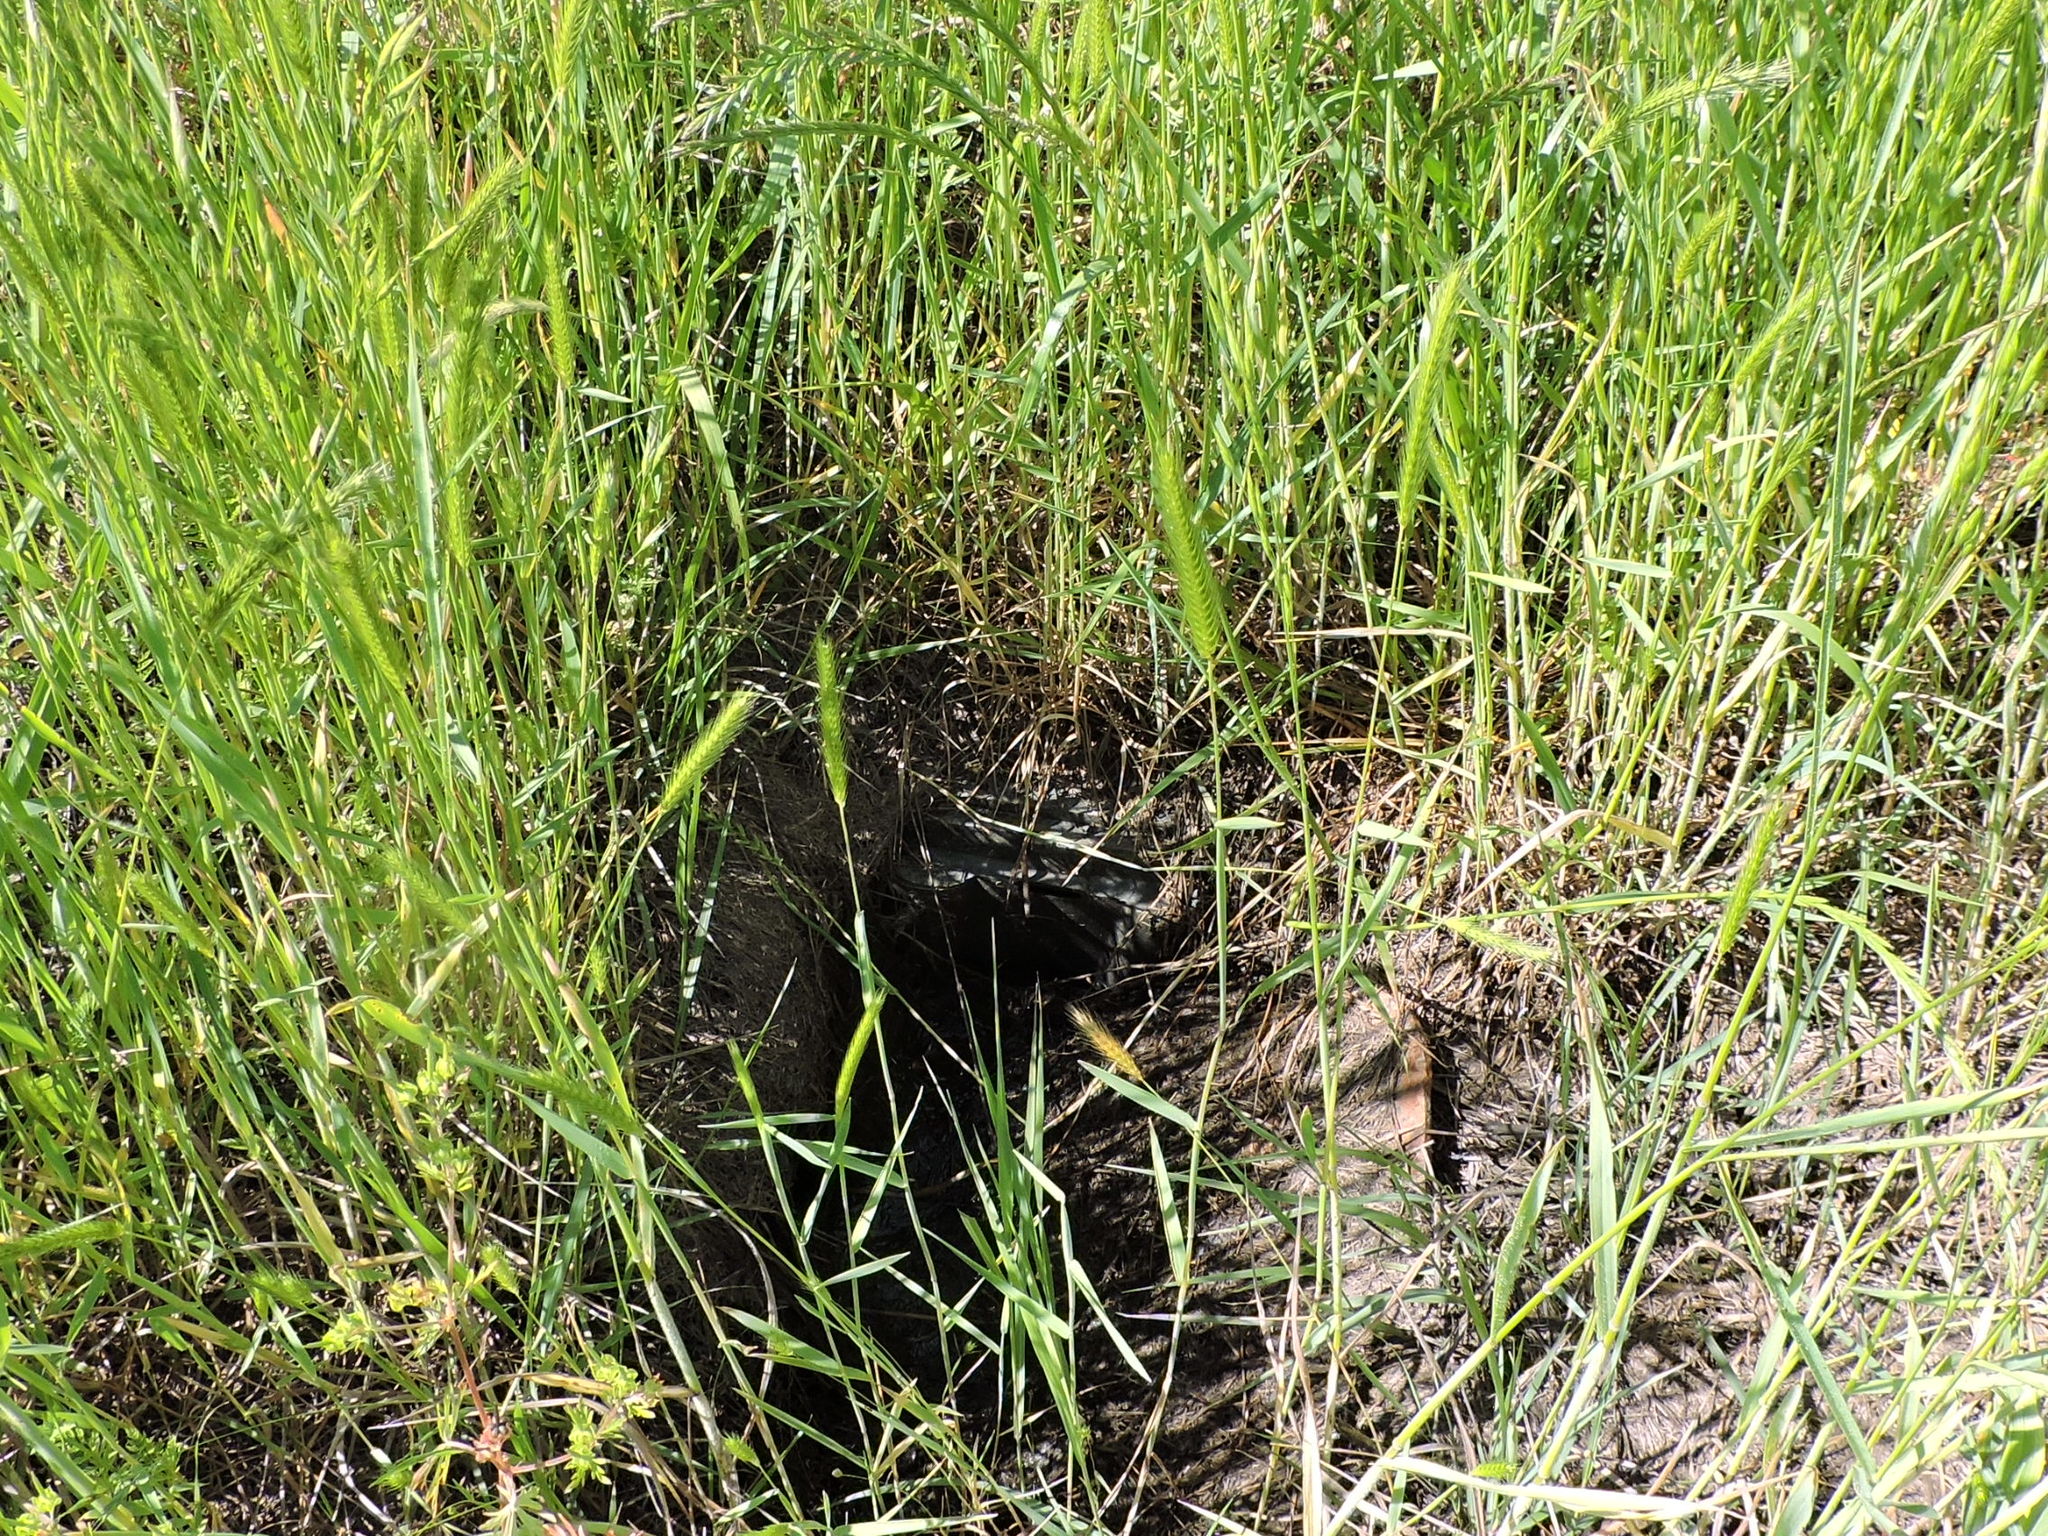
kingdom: Plantae
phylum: Tracheophyta
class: Liliopsida
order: Poales
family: Poaceae
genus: Hordeum
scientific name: Hordeum pusillum
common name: Little barley
